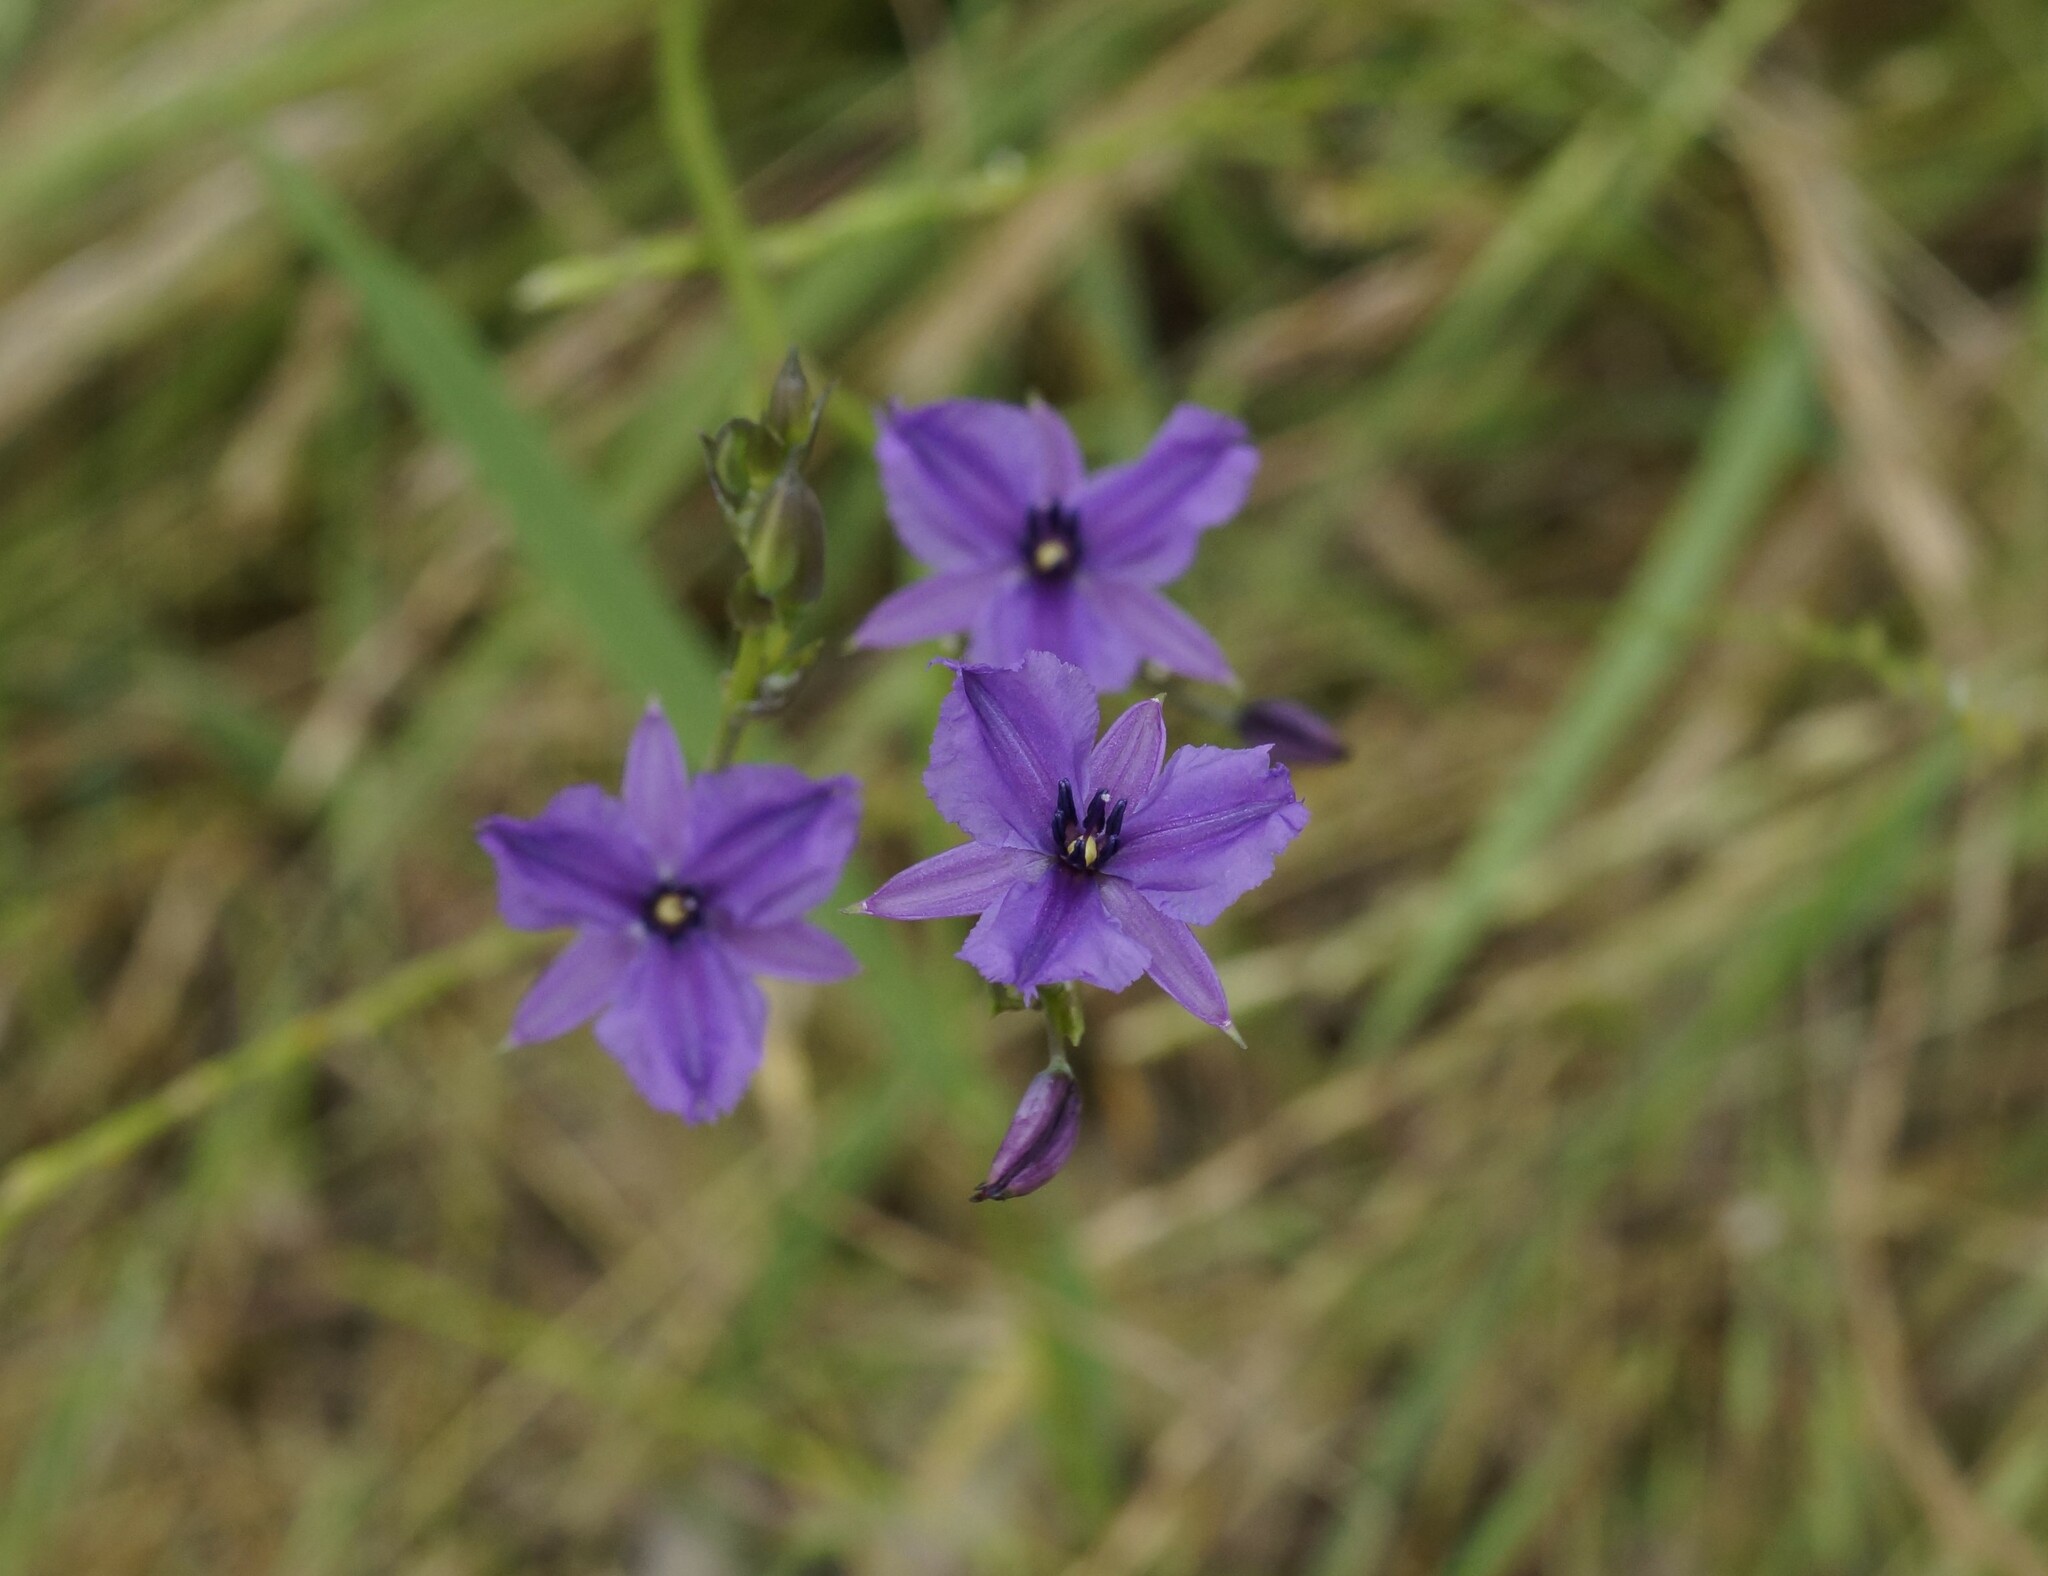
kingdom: Plantae
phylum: Tracheophyta
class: Liliopsida
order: Asparagales
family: Asparagaceae
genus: Arthropodium
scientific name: Arthropodium strictum
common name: Chocolate-lily
